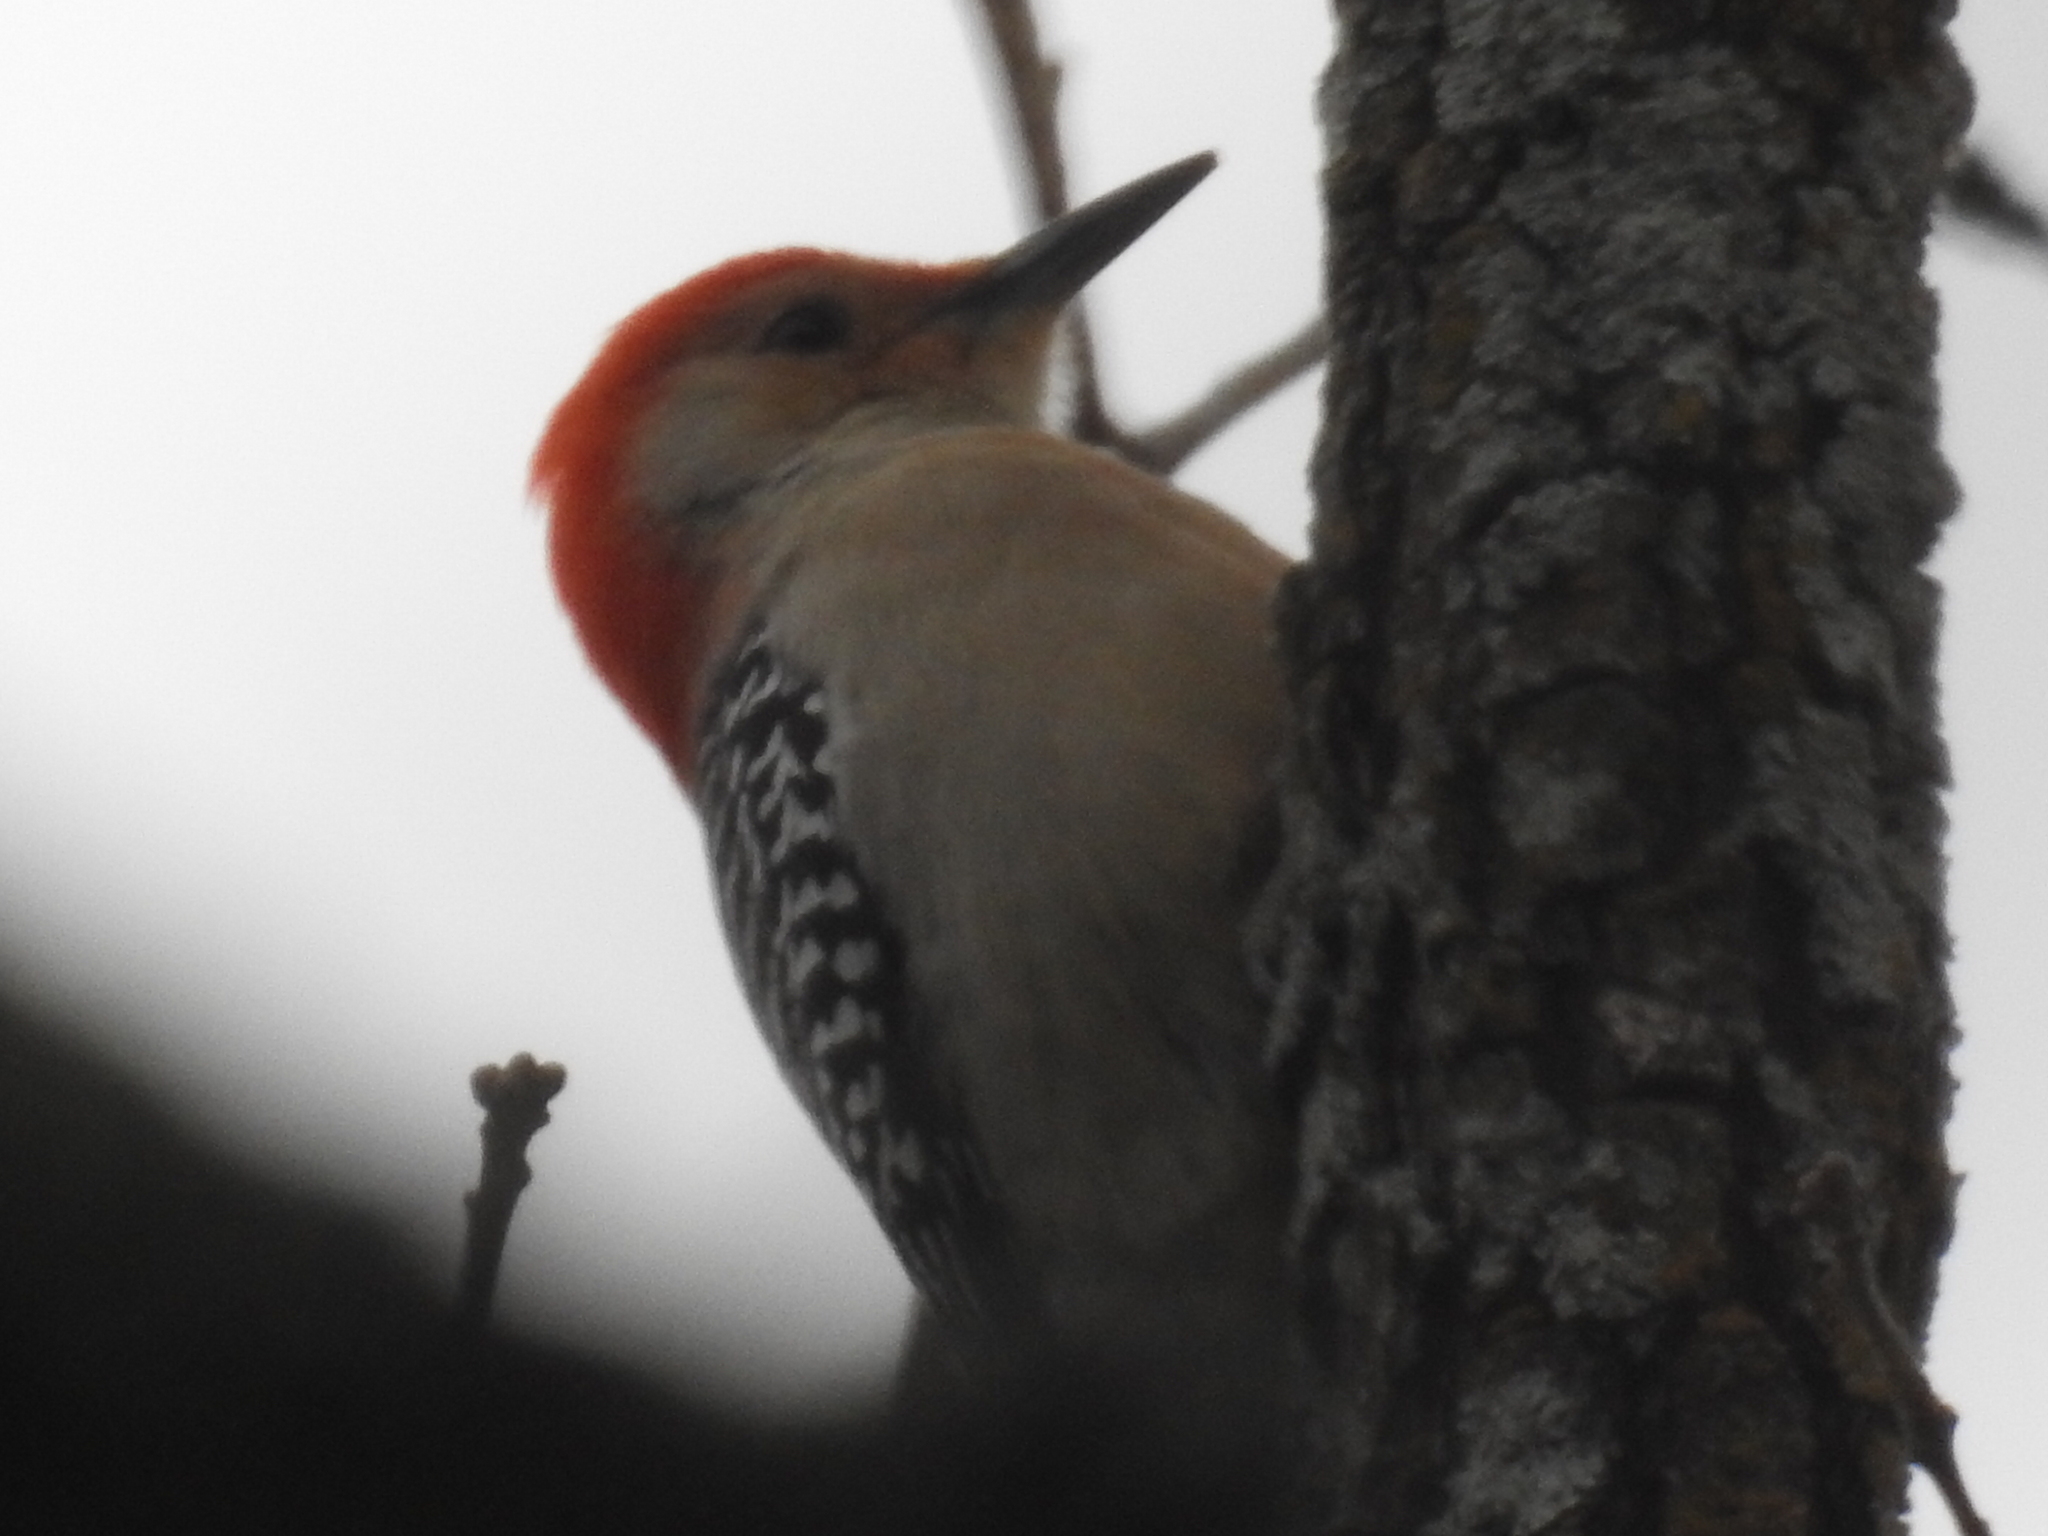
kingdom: Animalia
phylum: Chordata
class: Aves
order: Piciformes
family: Picidae
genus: Melanerpes
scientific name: Melanerpes carolinus
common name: Red-bellied woodpecker
